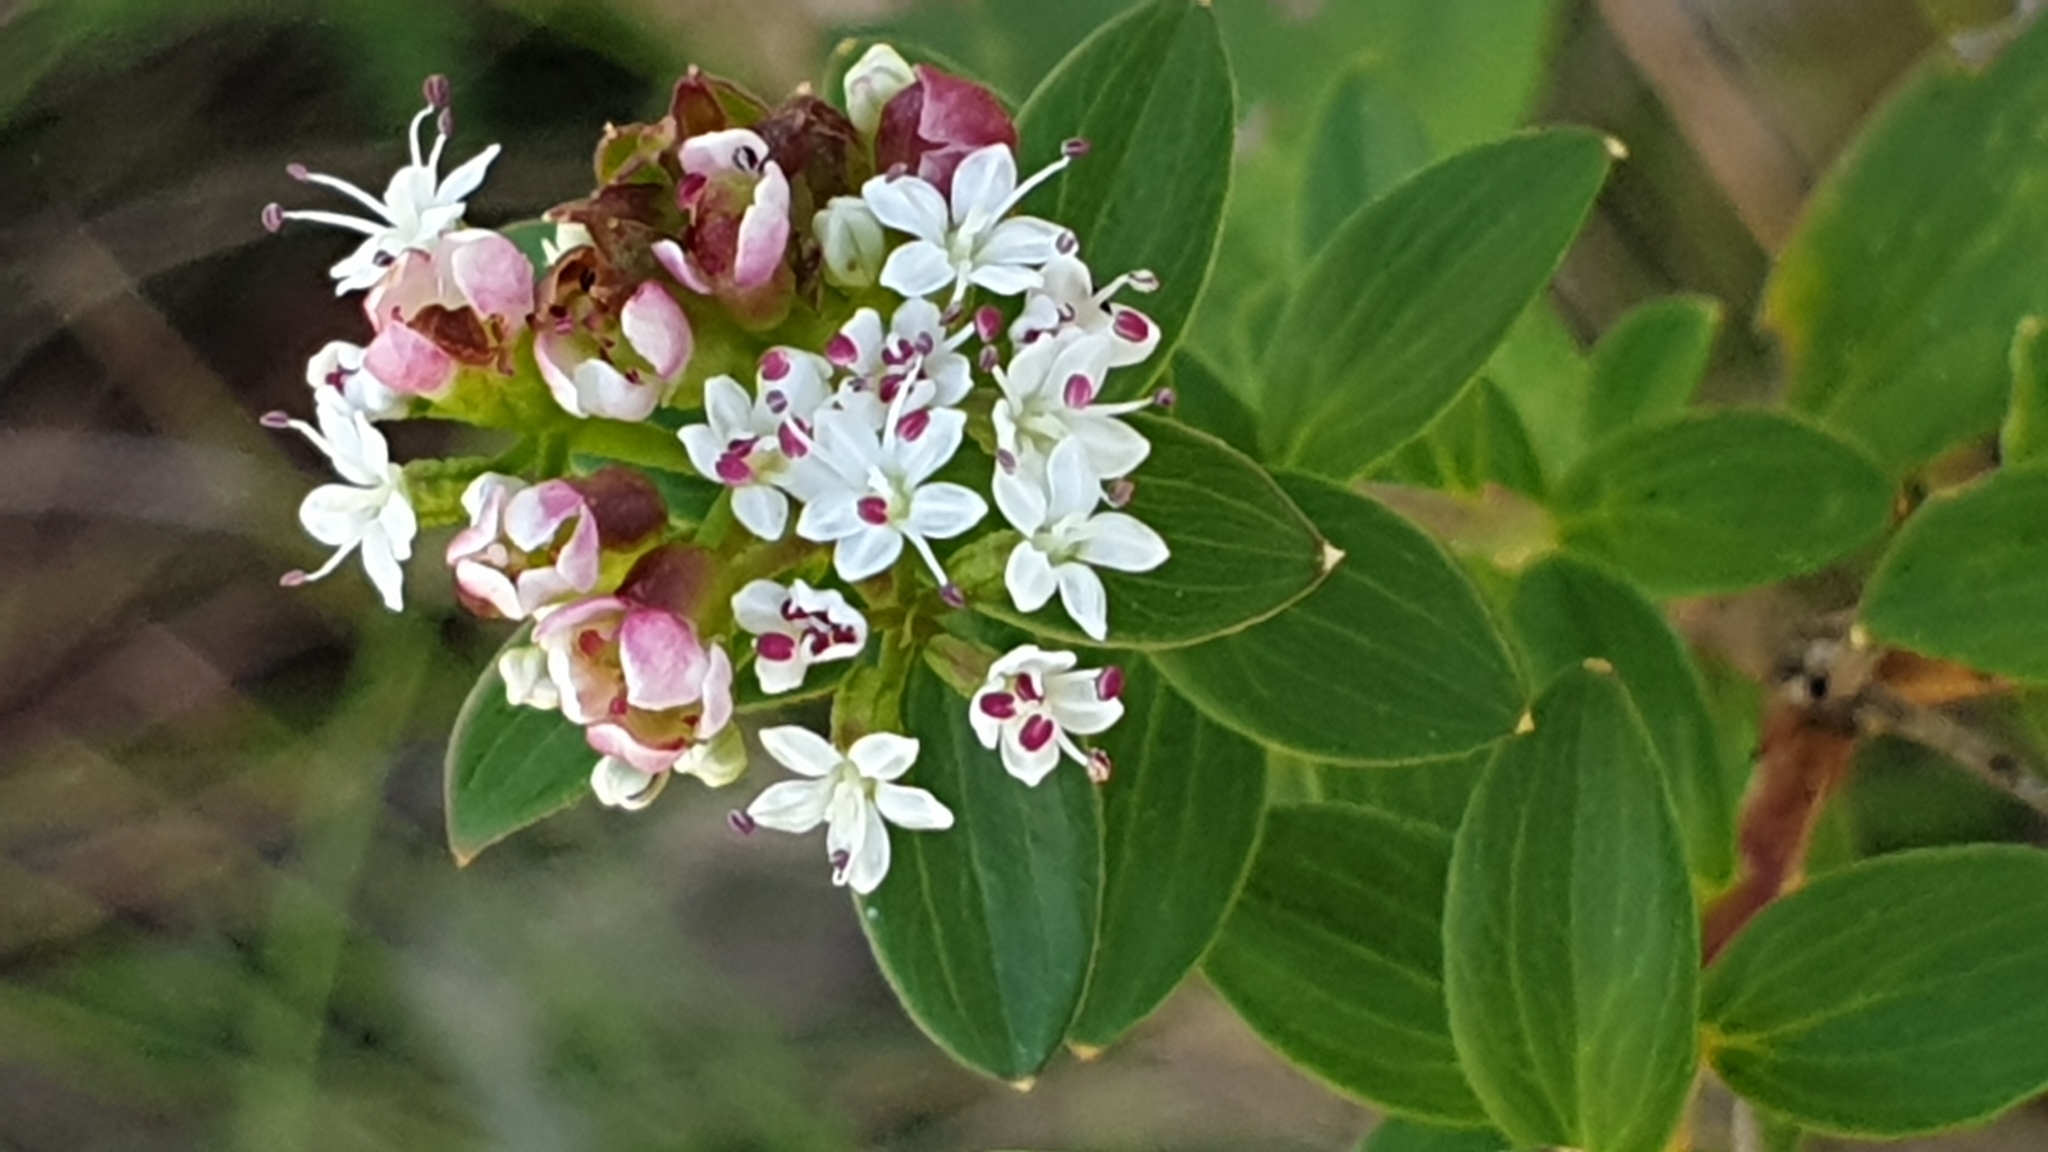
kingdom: Plantae
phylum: Tracheophyta
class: Magnoliopsida
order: Apiales
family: Apiaceae
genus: Platysace
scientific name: Platysace lanceolata
